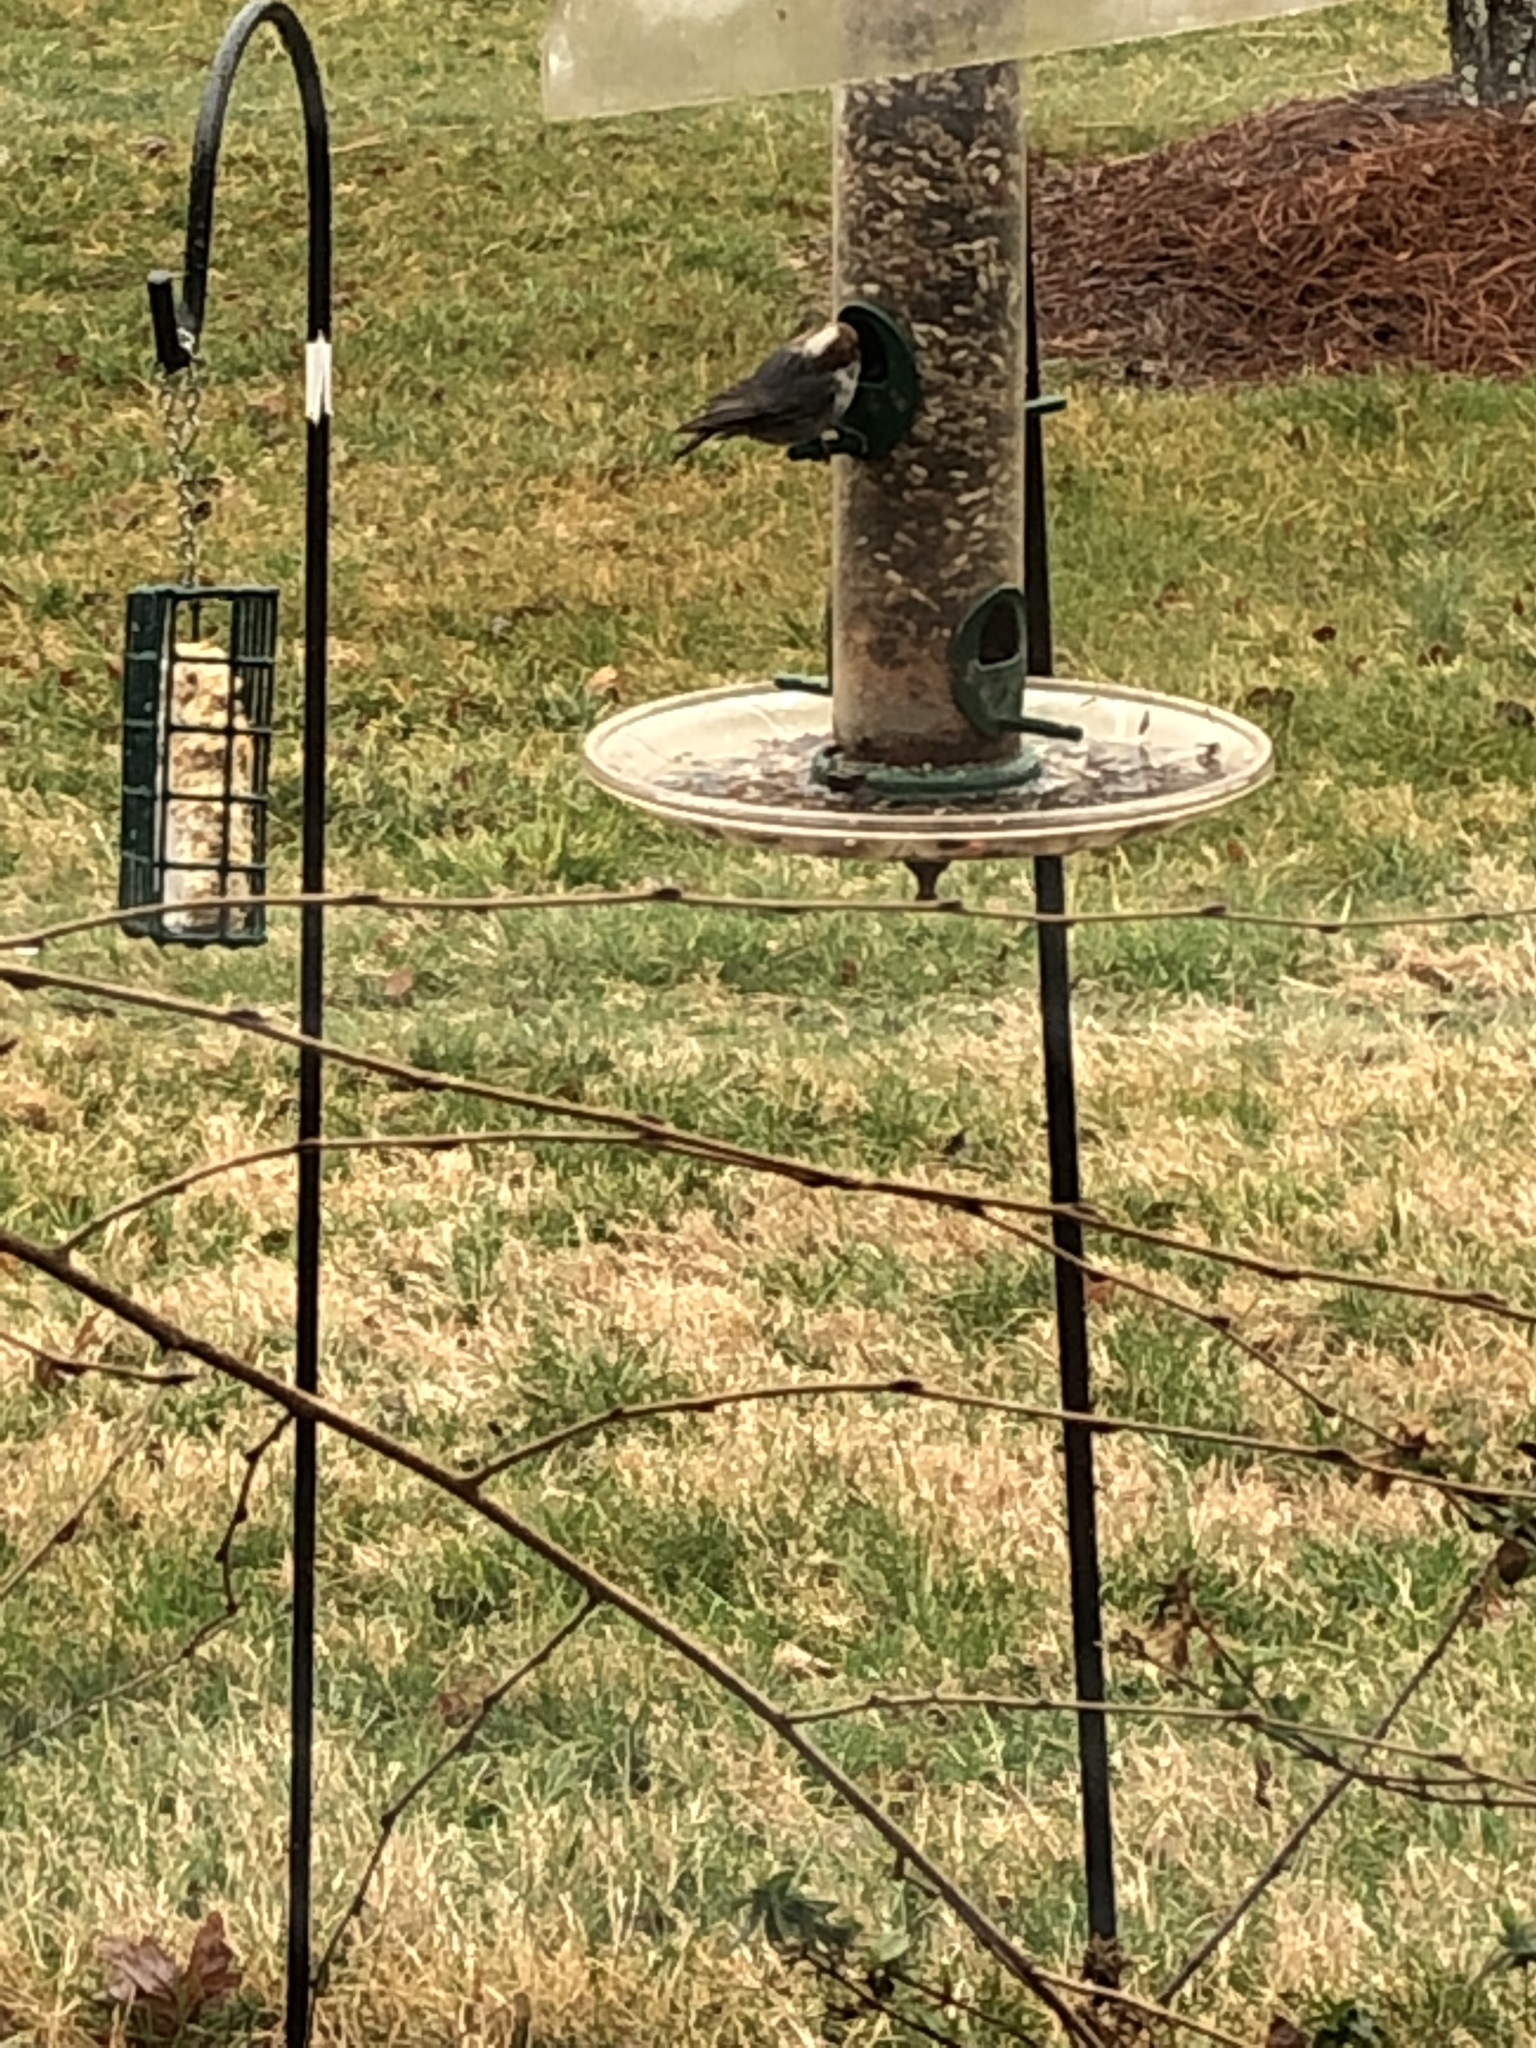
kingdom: Animalia
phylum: Chordata
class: Aves
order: Passeriformes
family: Sittidae
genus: Sitta
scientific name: Sitta pusilla
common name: Brown-headed nuthatch
